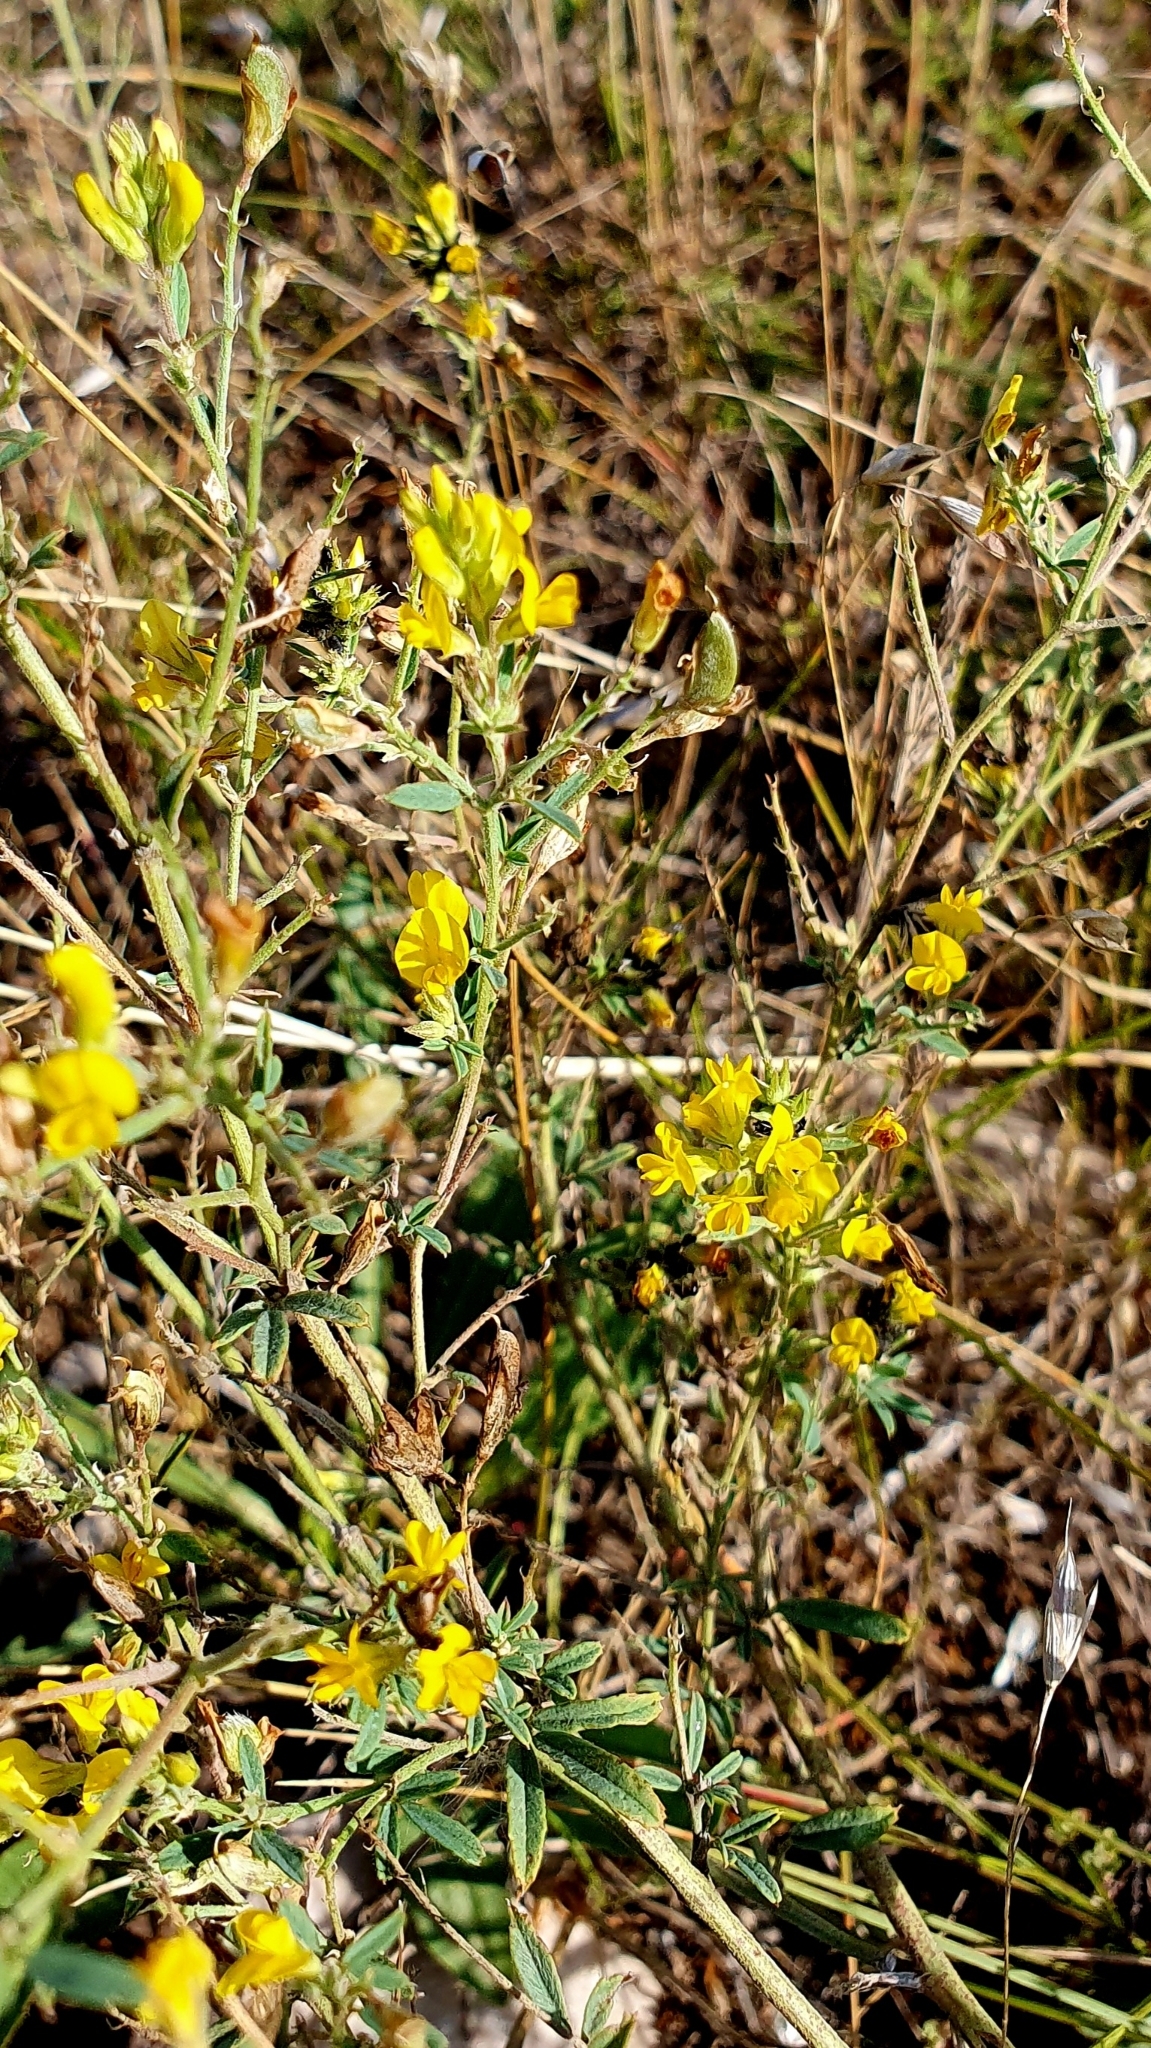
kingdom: Plantae
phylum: Tracheophyta
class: Magnoliopsida
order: Fabales
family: Fabaceae
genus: Medicago
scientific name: Medicago falcata
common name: Sickle medick
